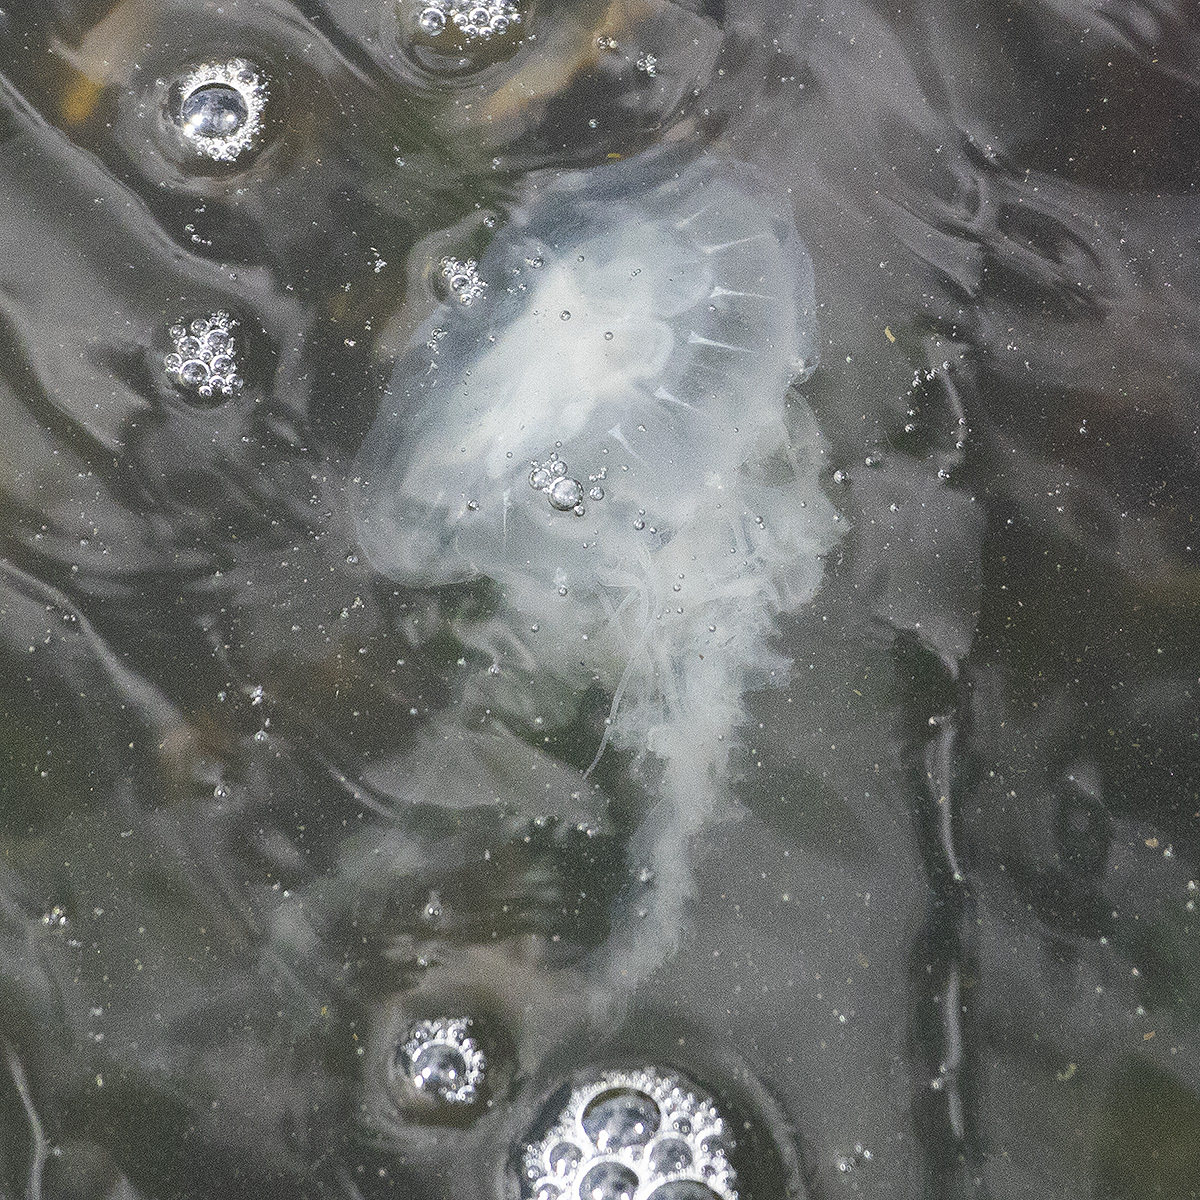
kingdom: Animalia
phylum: Cnidaria
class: Scyphozoa
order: Semaeostomeae
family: Pelagiidae
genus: Chrysaora
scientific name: Chrysaora chesapeakei
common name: Bay nettle
